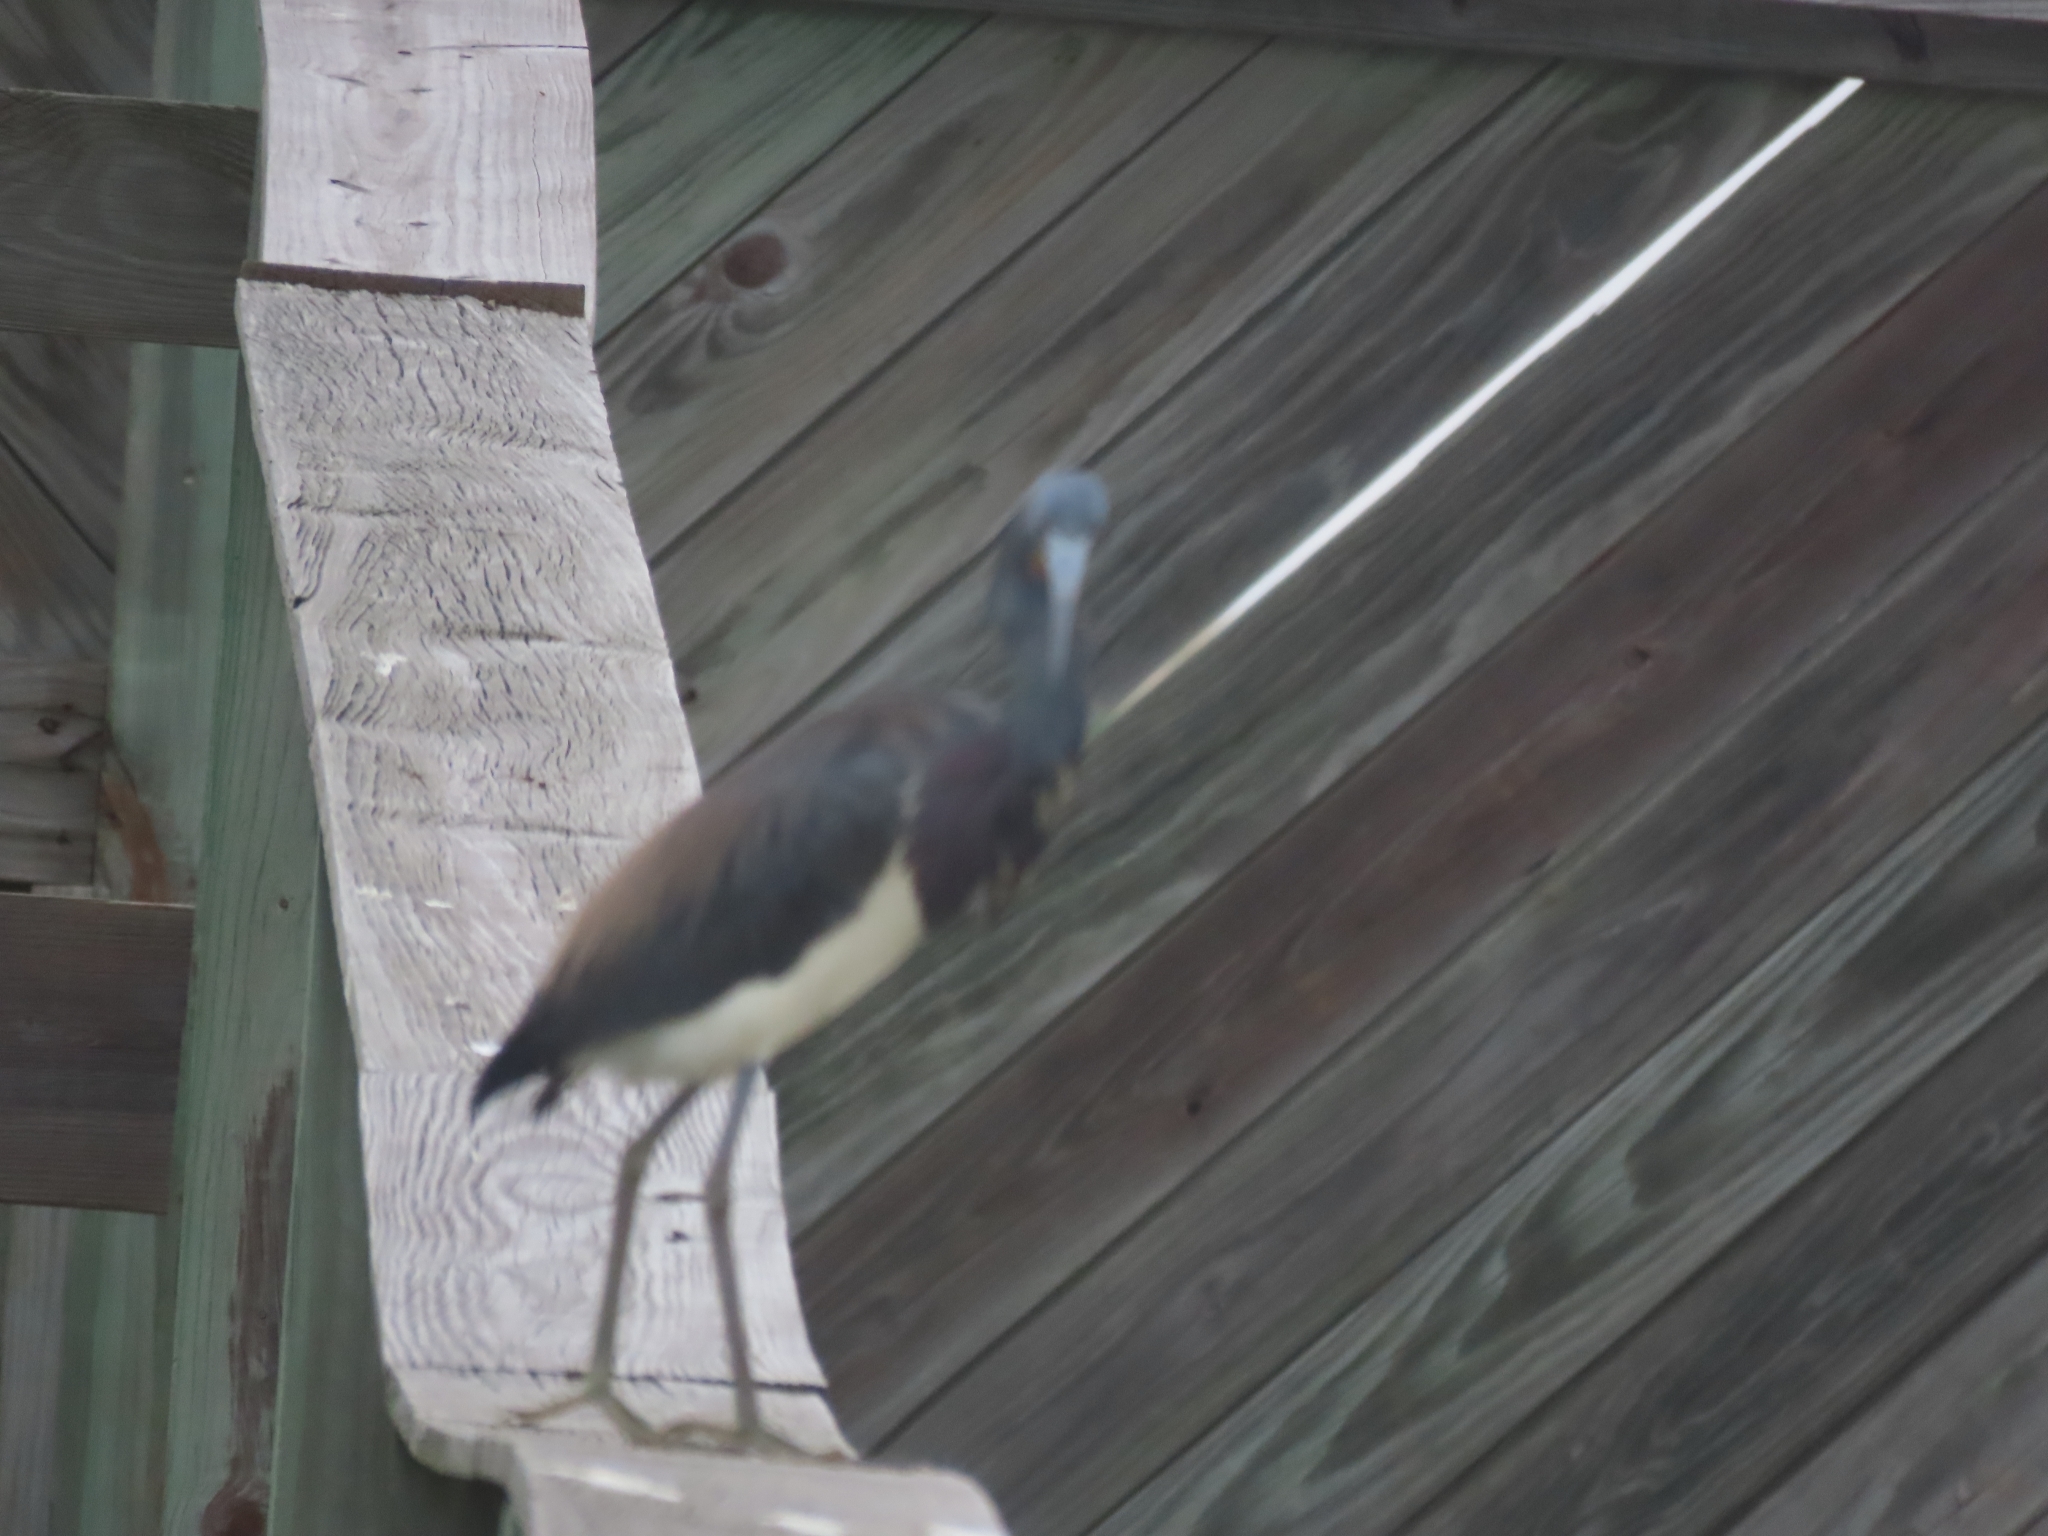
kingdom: Animalia
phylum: Chordata
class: Aves
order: Pelecaniformes
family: Ardeidae
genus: Egretta
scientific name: Egretta tricolor
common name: Tricolored heron
